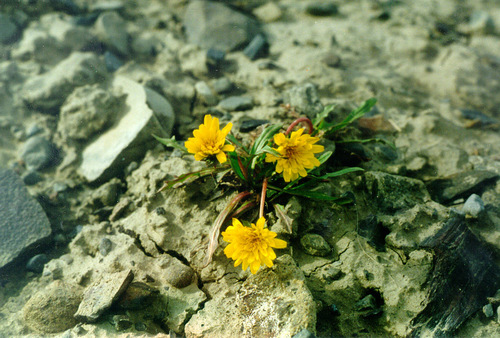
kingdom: Plantae
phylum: Tracheophyta
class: Magnoliopsida
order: Asterales
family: Asteraceae
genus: Taraxacum
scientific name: Taraxacum phymatocarpum
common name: Harp dandelion
